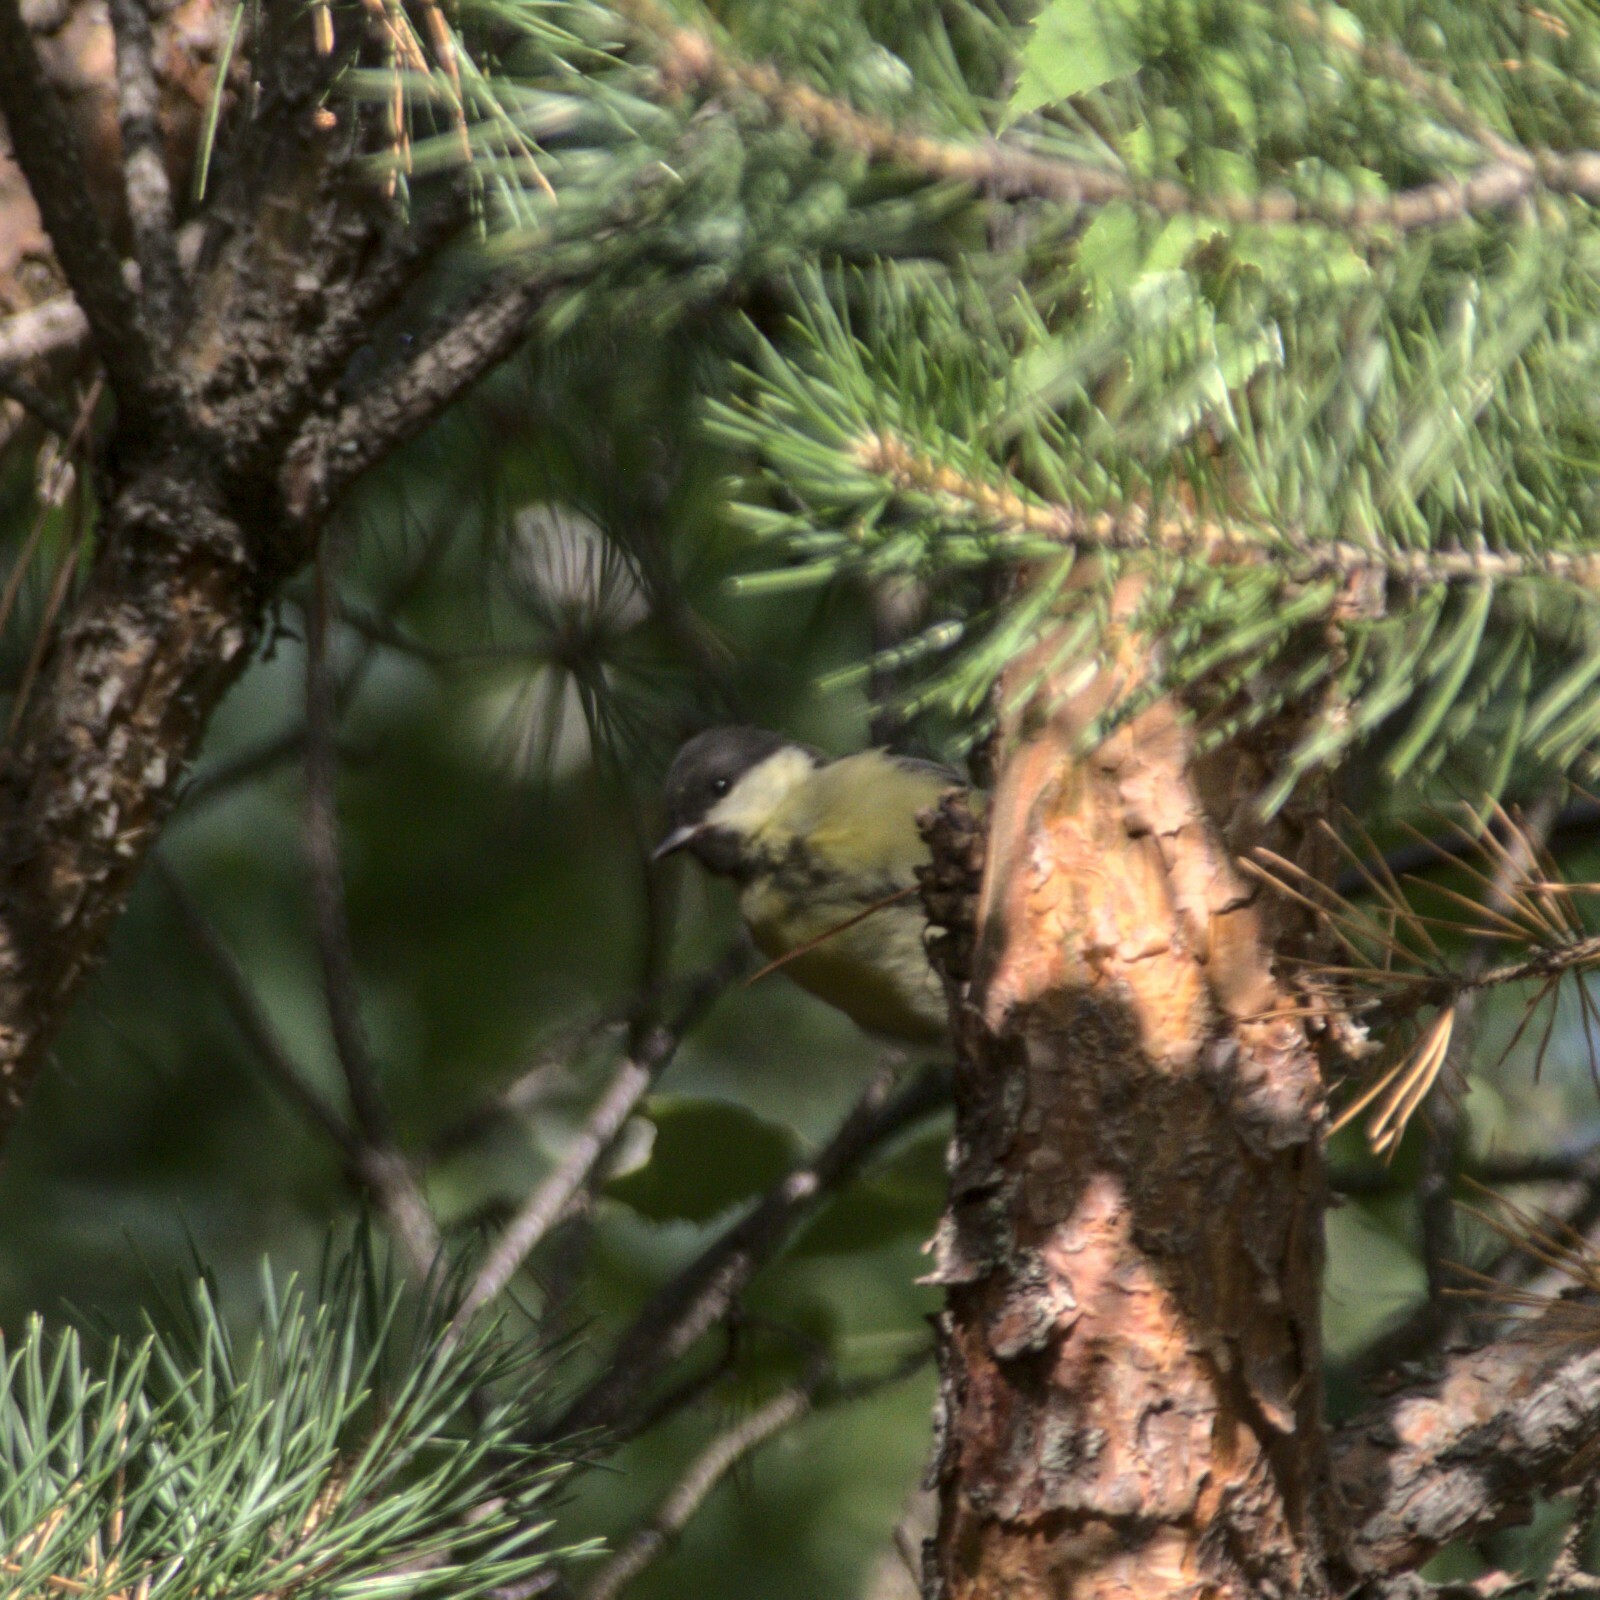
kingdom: Animalia
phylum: Chordata
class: Aves
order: Passeriformes
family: Paridae
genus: Parus
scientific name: Parus major
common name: Great tit
